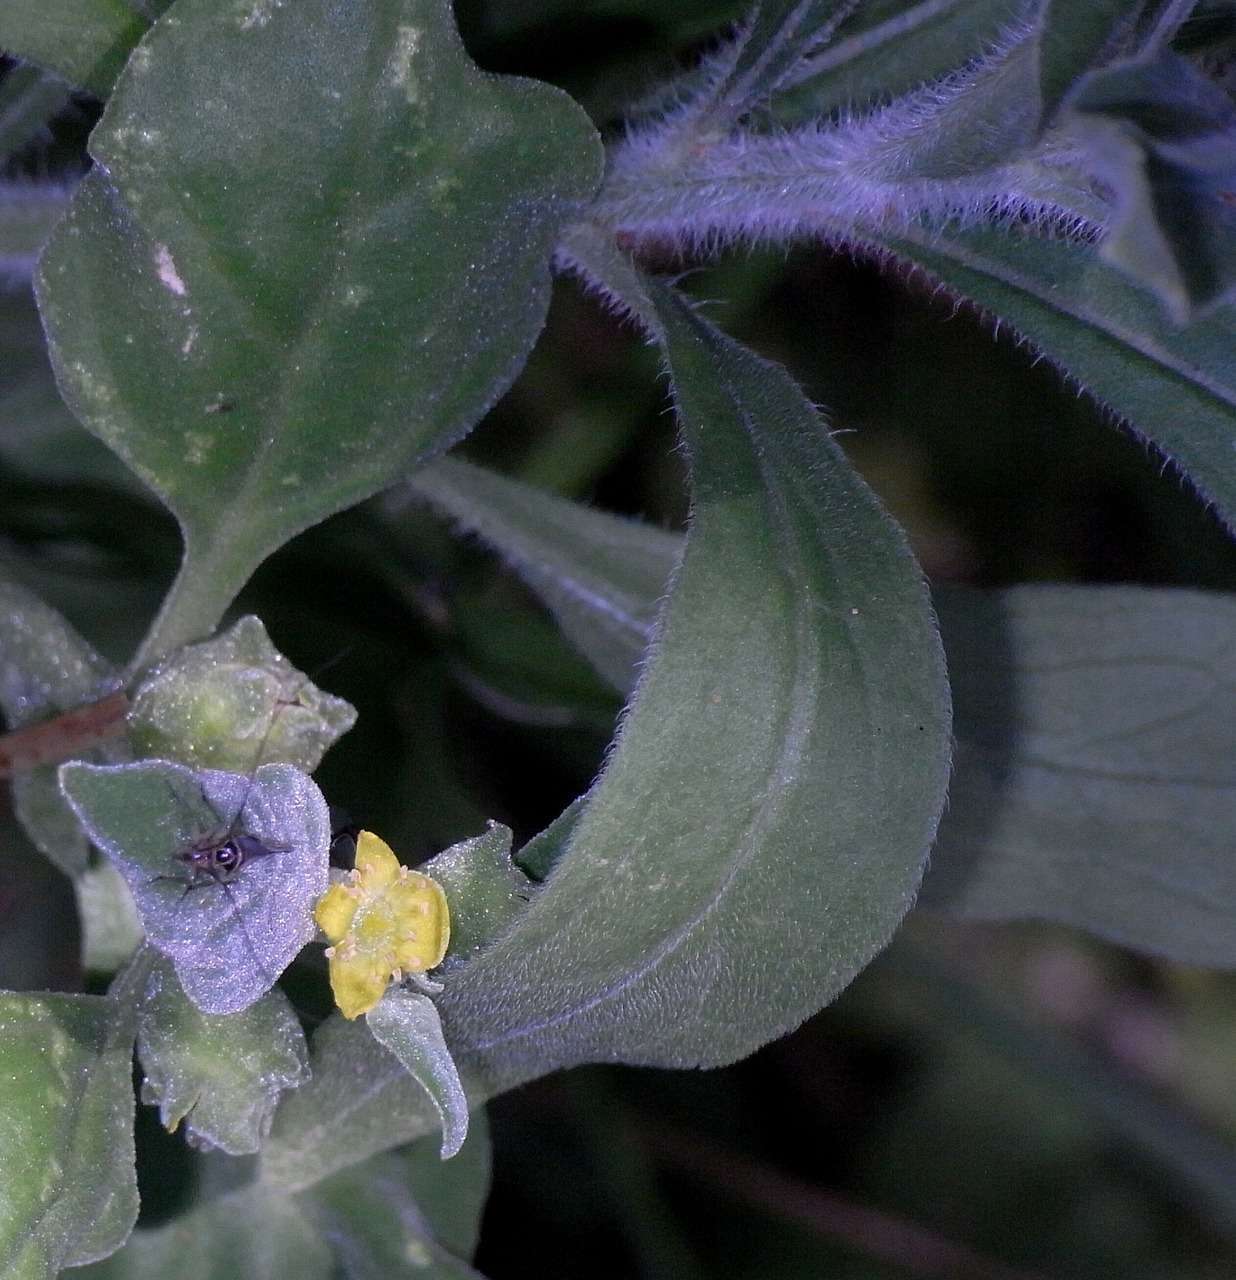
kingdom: Plantae
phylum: Tracheophyta
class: Magnoliopsida
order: Caryophyllales
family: Aizoaceae
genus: Tetragonia
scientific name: Tetragonia tetragonoides
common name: New zealand-spinach
